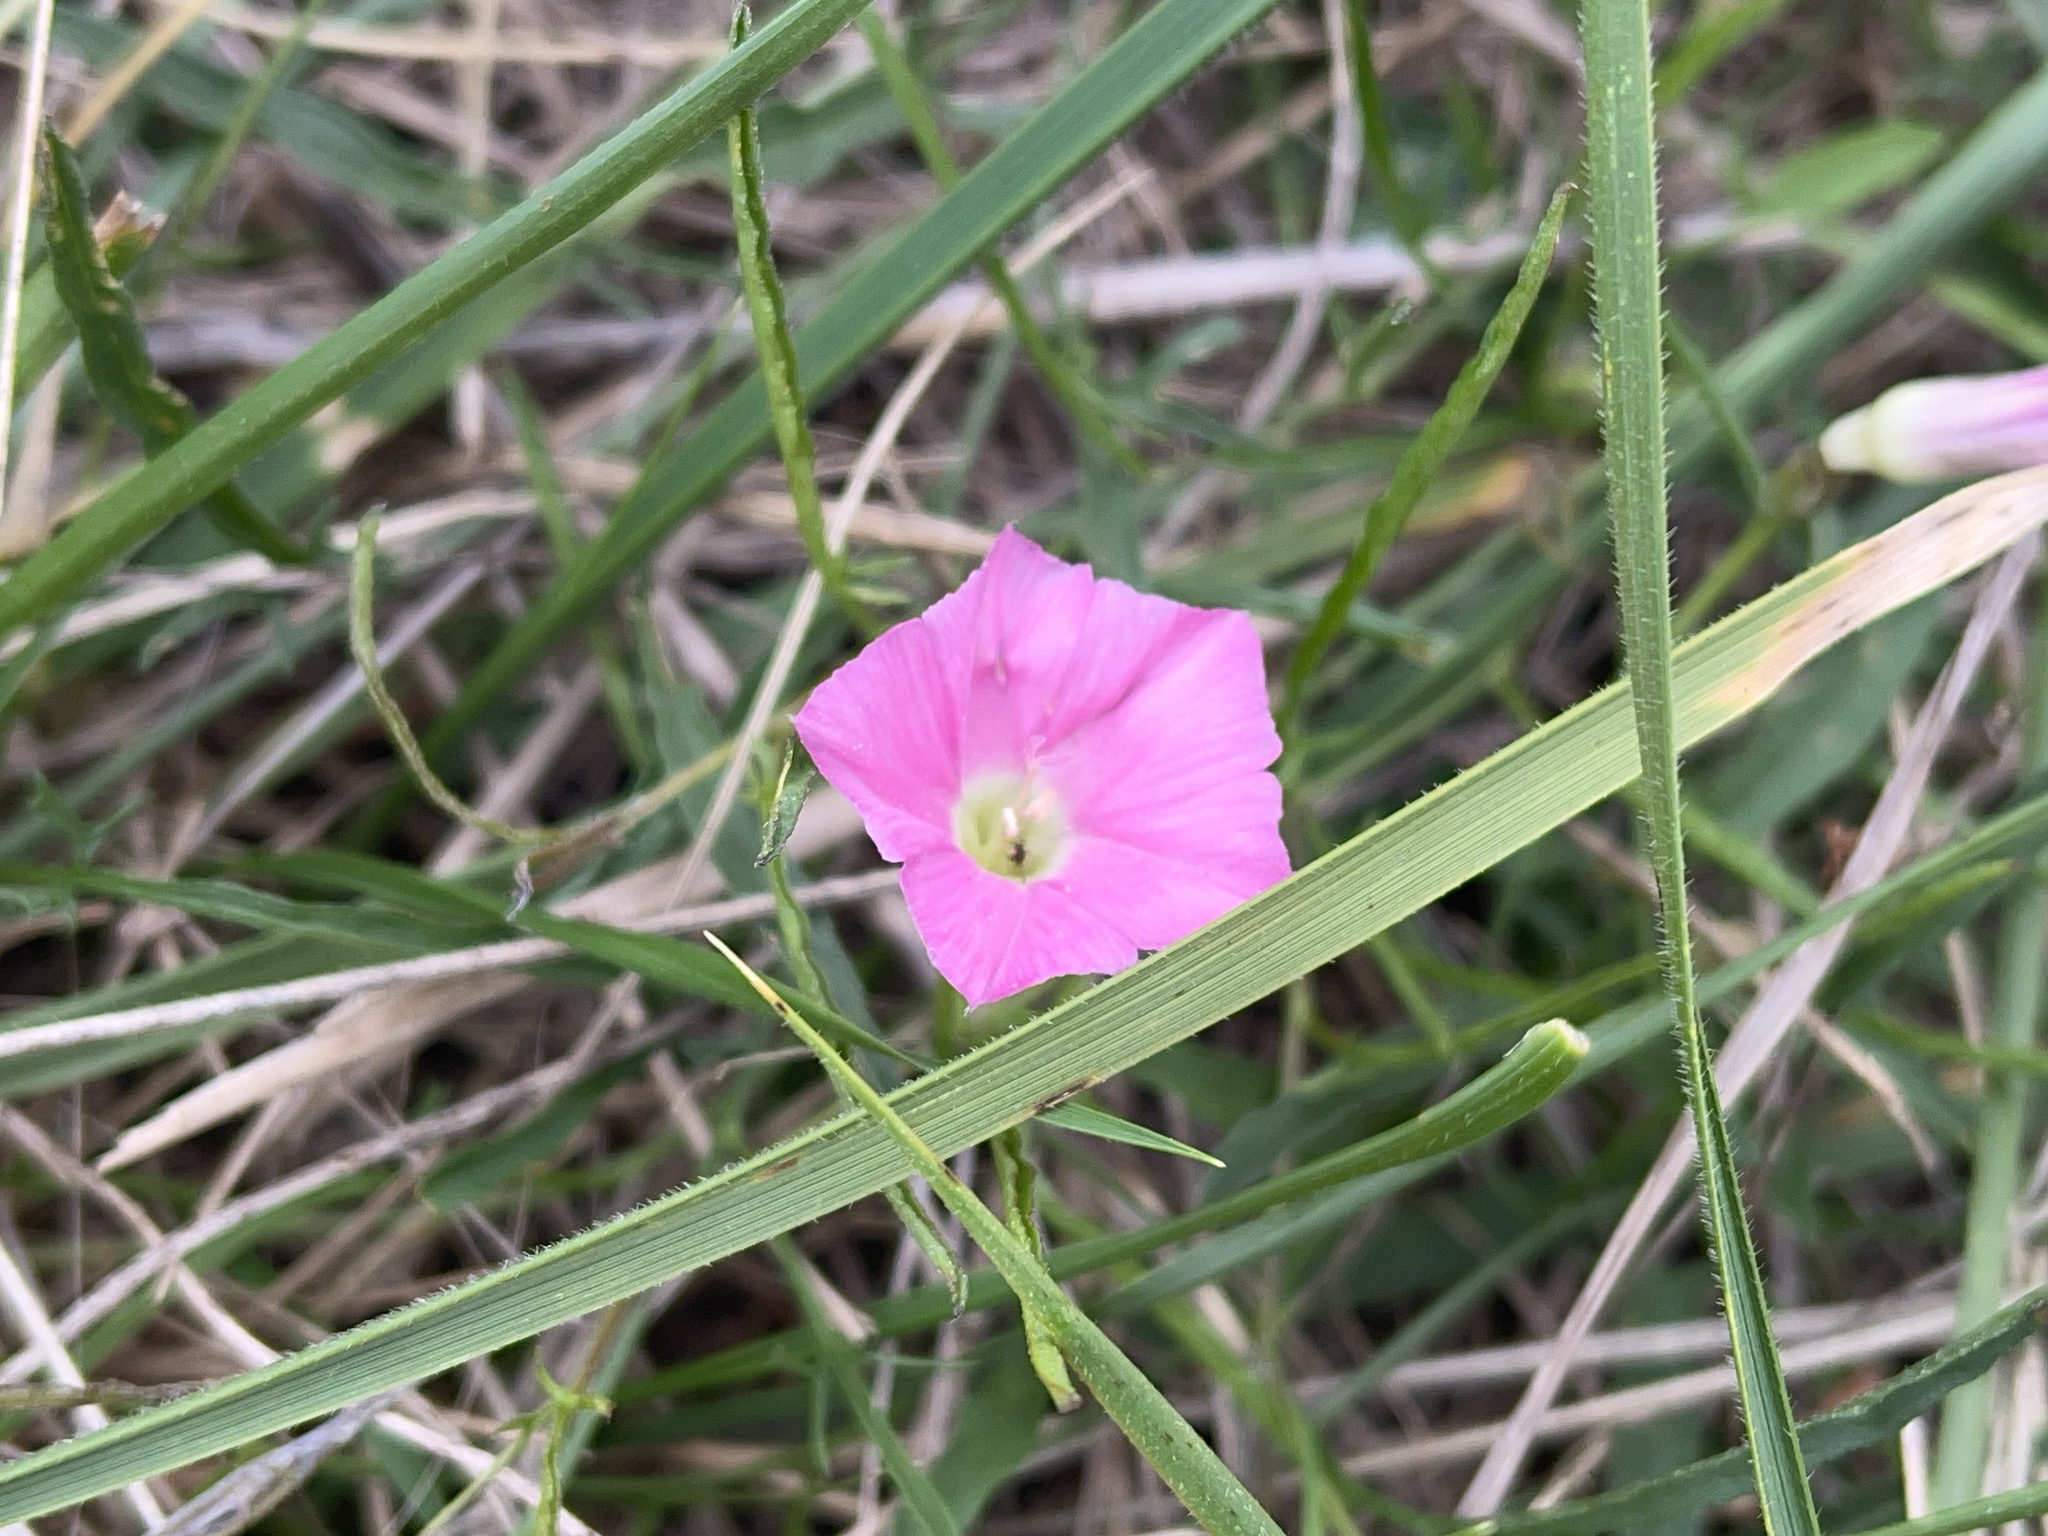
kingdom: Plantae
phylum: Tracheophyta
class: Magnoliopsida
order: Solanales
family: Convolvulaceae
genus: Convolvulus
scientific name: Convolvulus angustissimus
